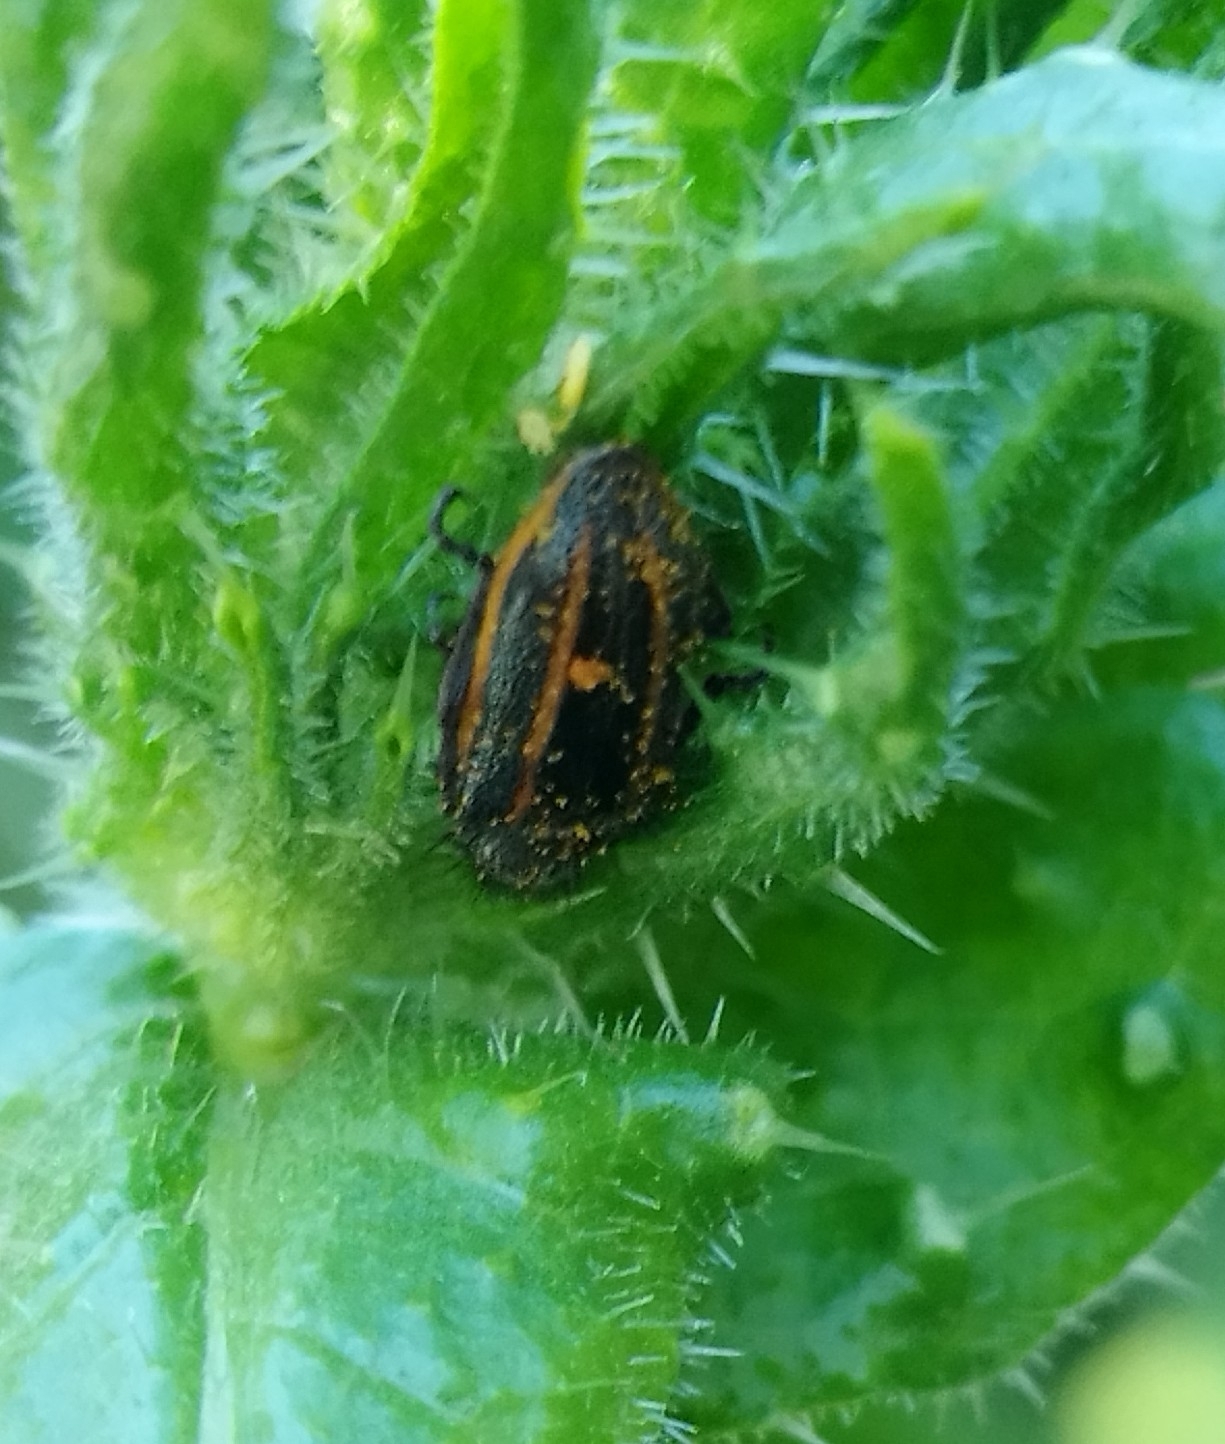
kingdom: Animalia
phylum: Arthropoda
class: Insecta
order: Coleoptera
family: Melyridae
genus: Astylus
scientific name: Astylus
